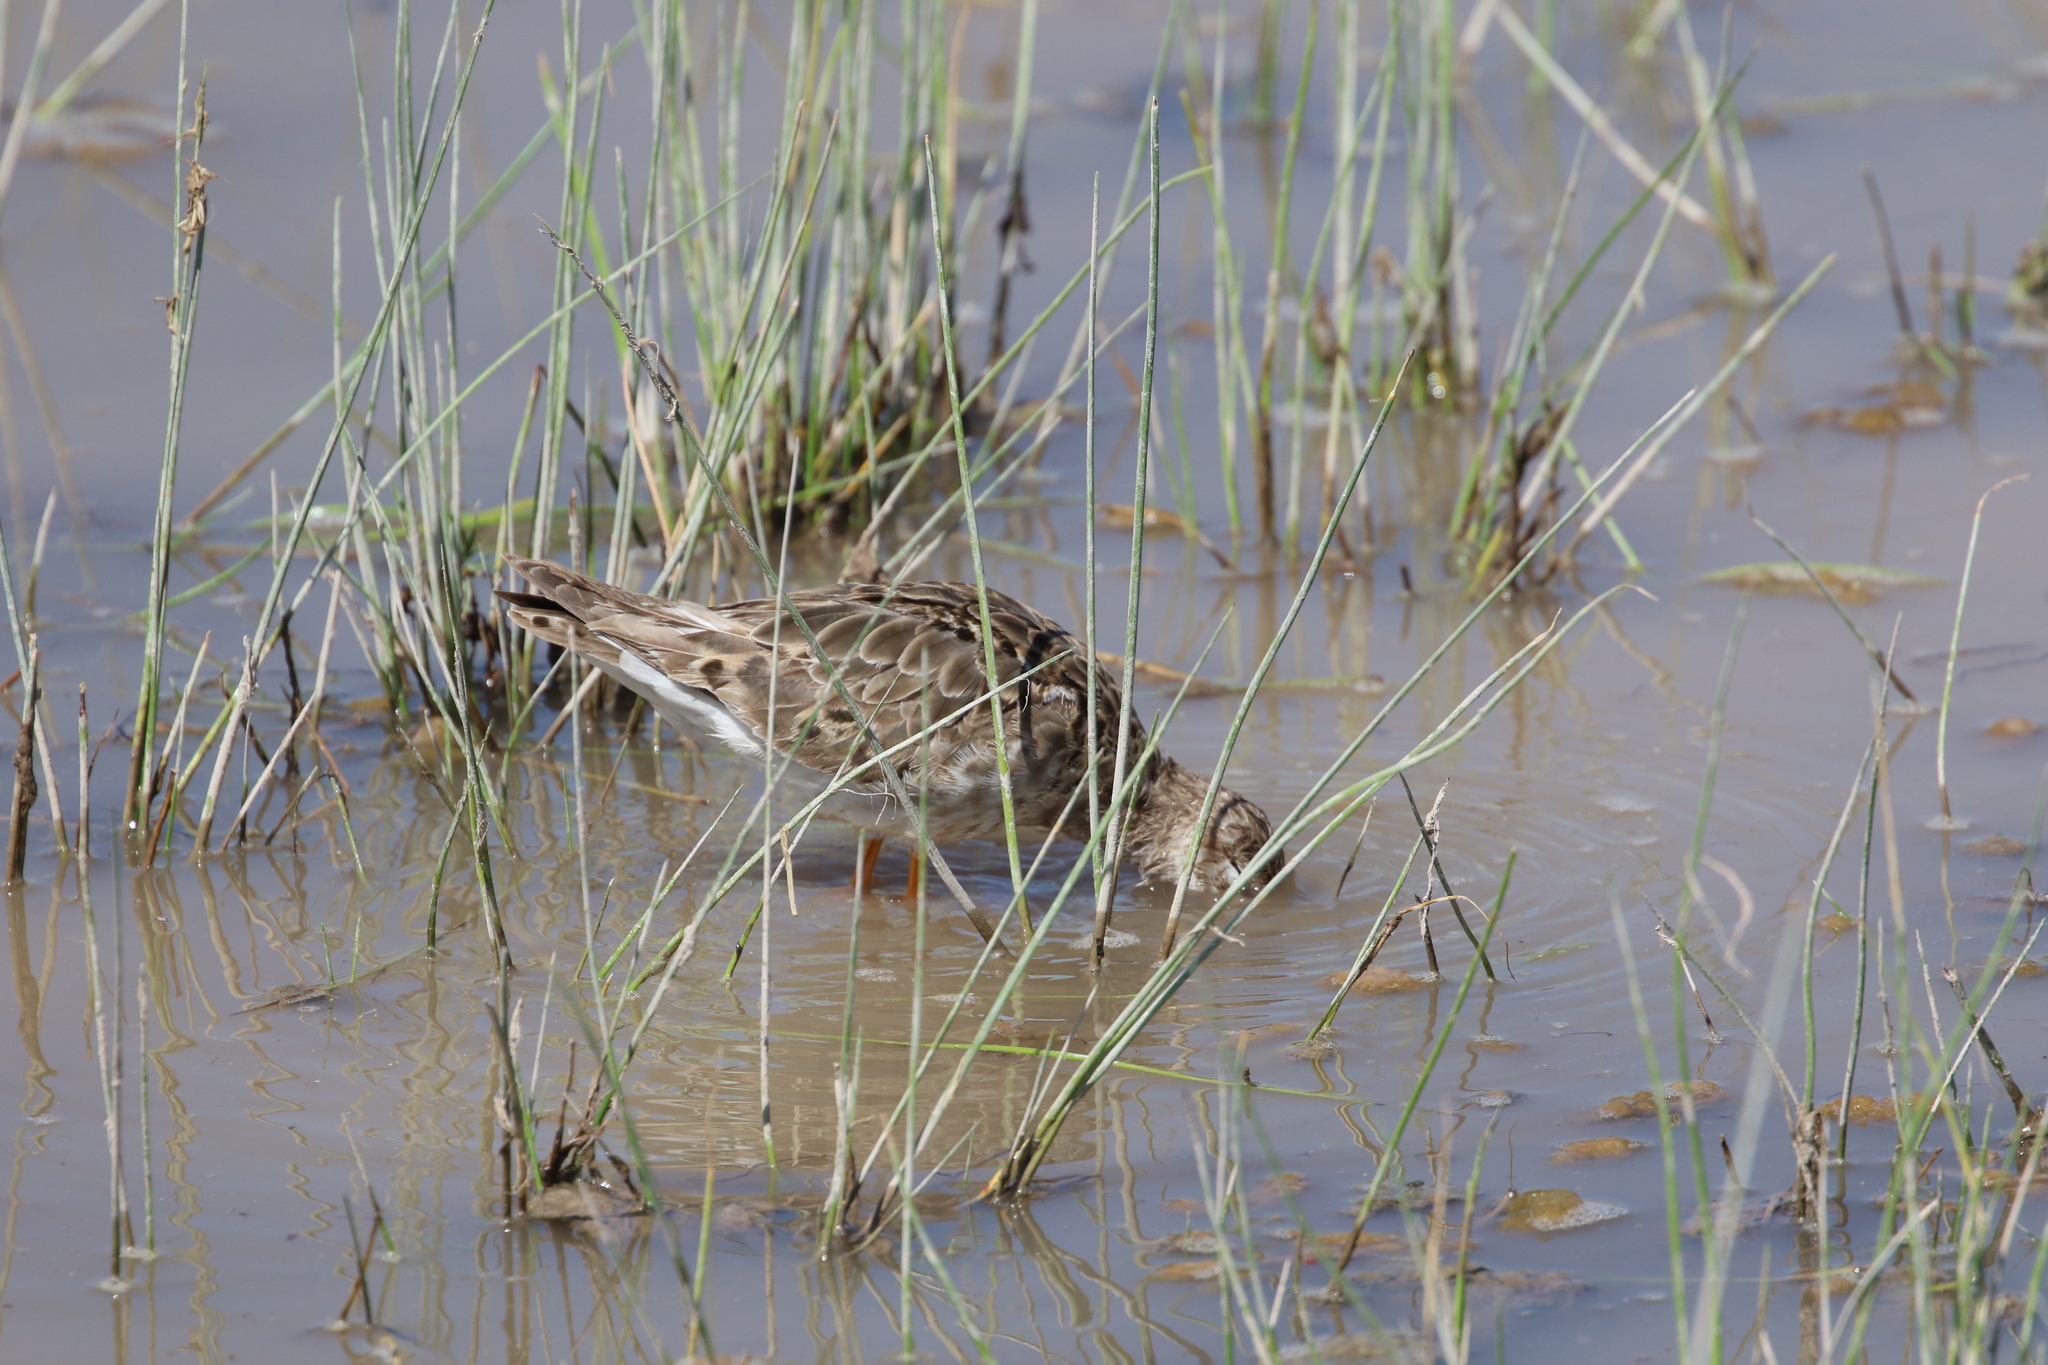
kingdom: Animalia
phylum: Chordata
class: Aves
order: Charadriiformes
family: Scolopacidae
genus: Calidris
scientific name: Calidris pugnax
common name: Ruff
